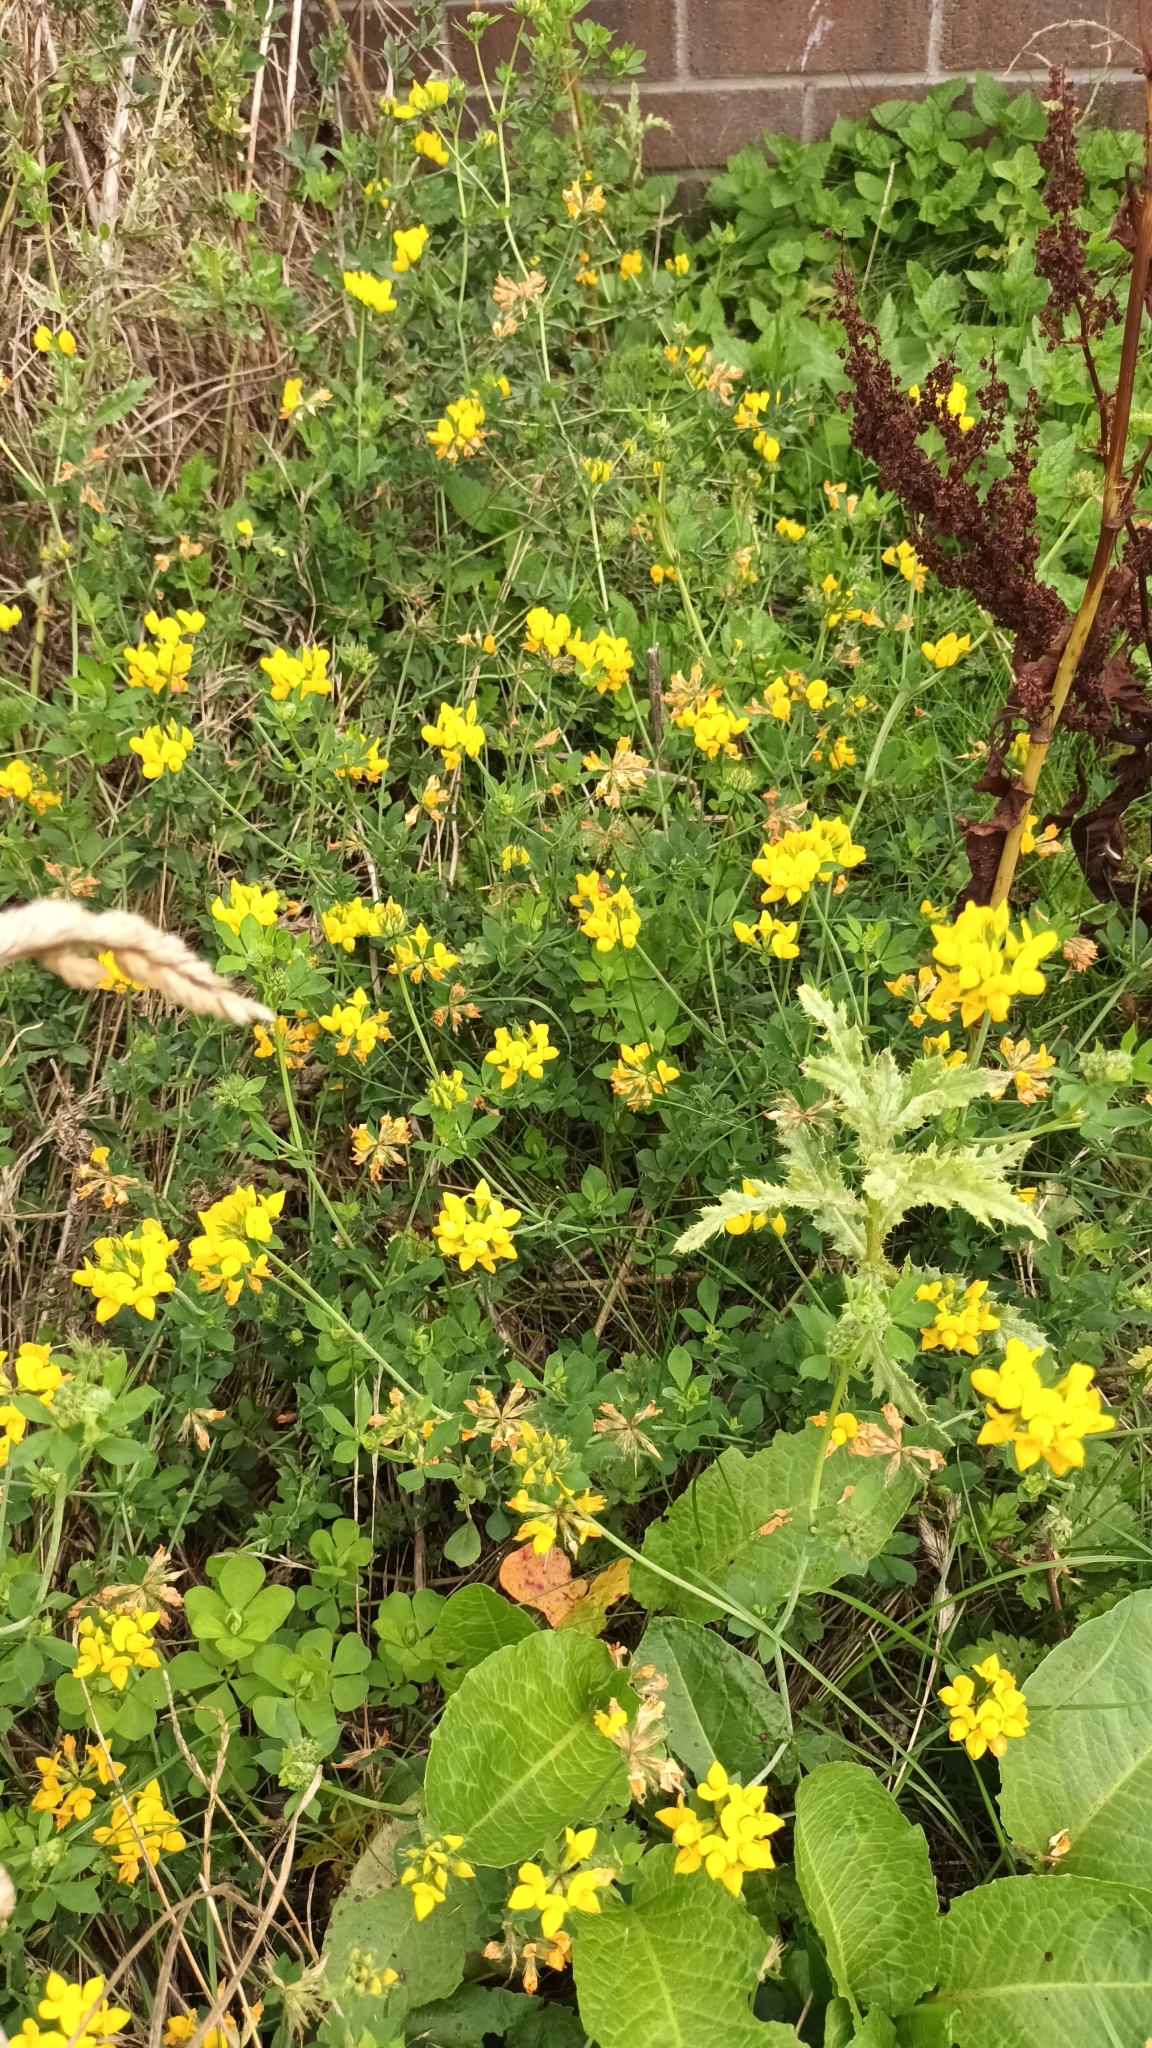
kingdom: Plantae
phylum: Tracheophyta
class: Magnoliopsida
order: Fabales
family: Fabaceae
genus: Lotus
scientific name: Lotus pedunculatus
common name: Greater birdsfoot-trefoil
